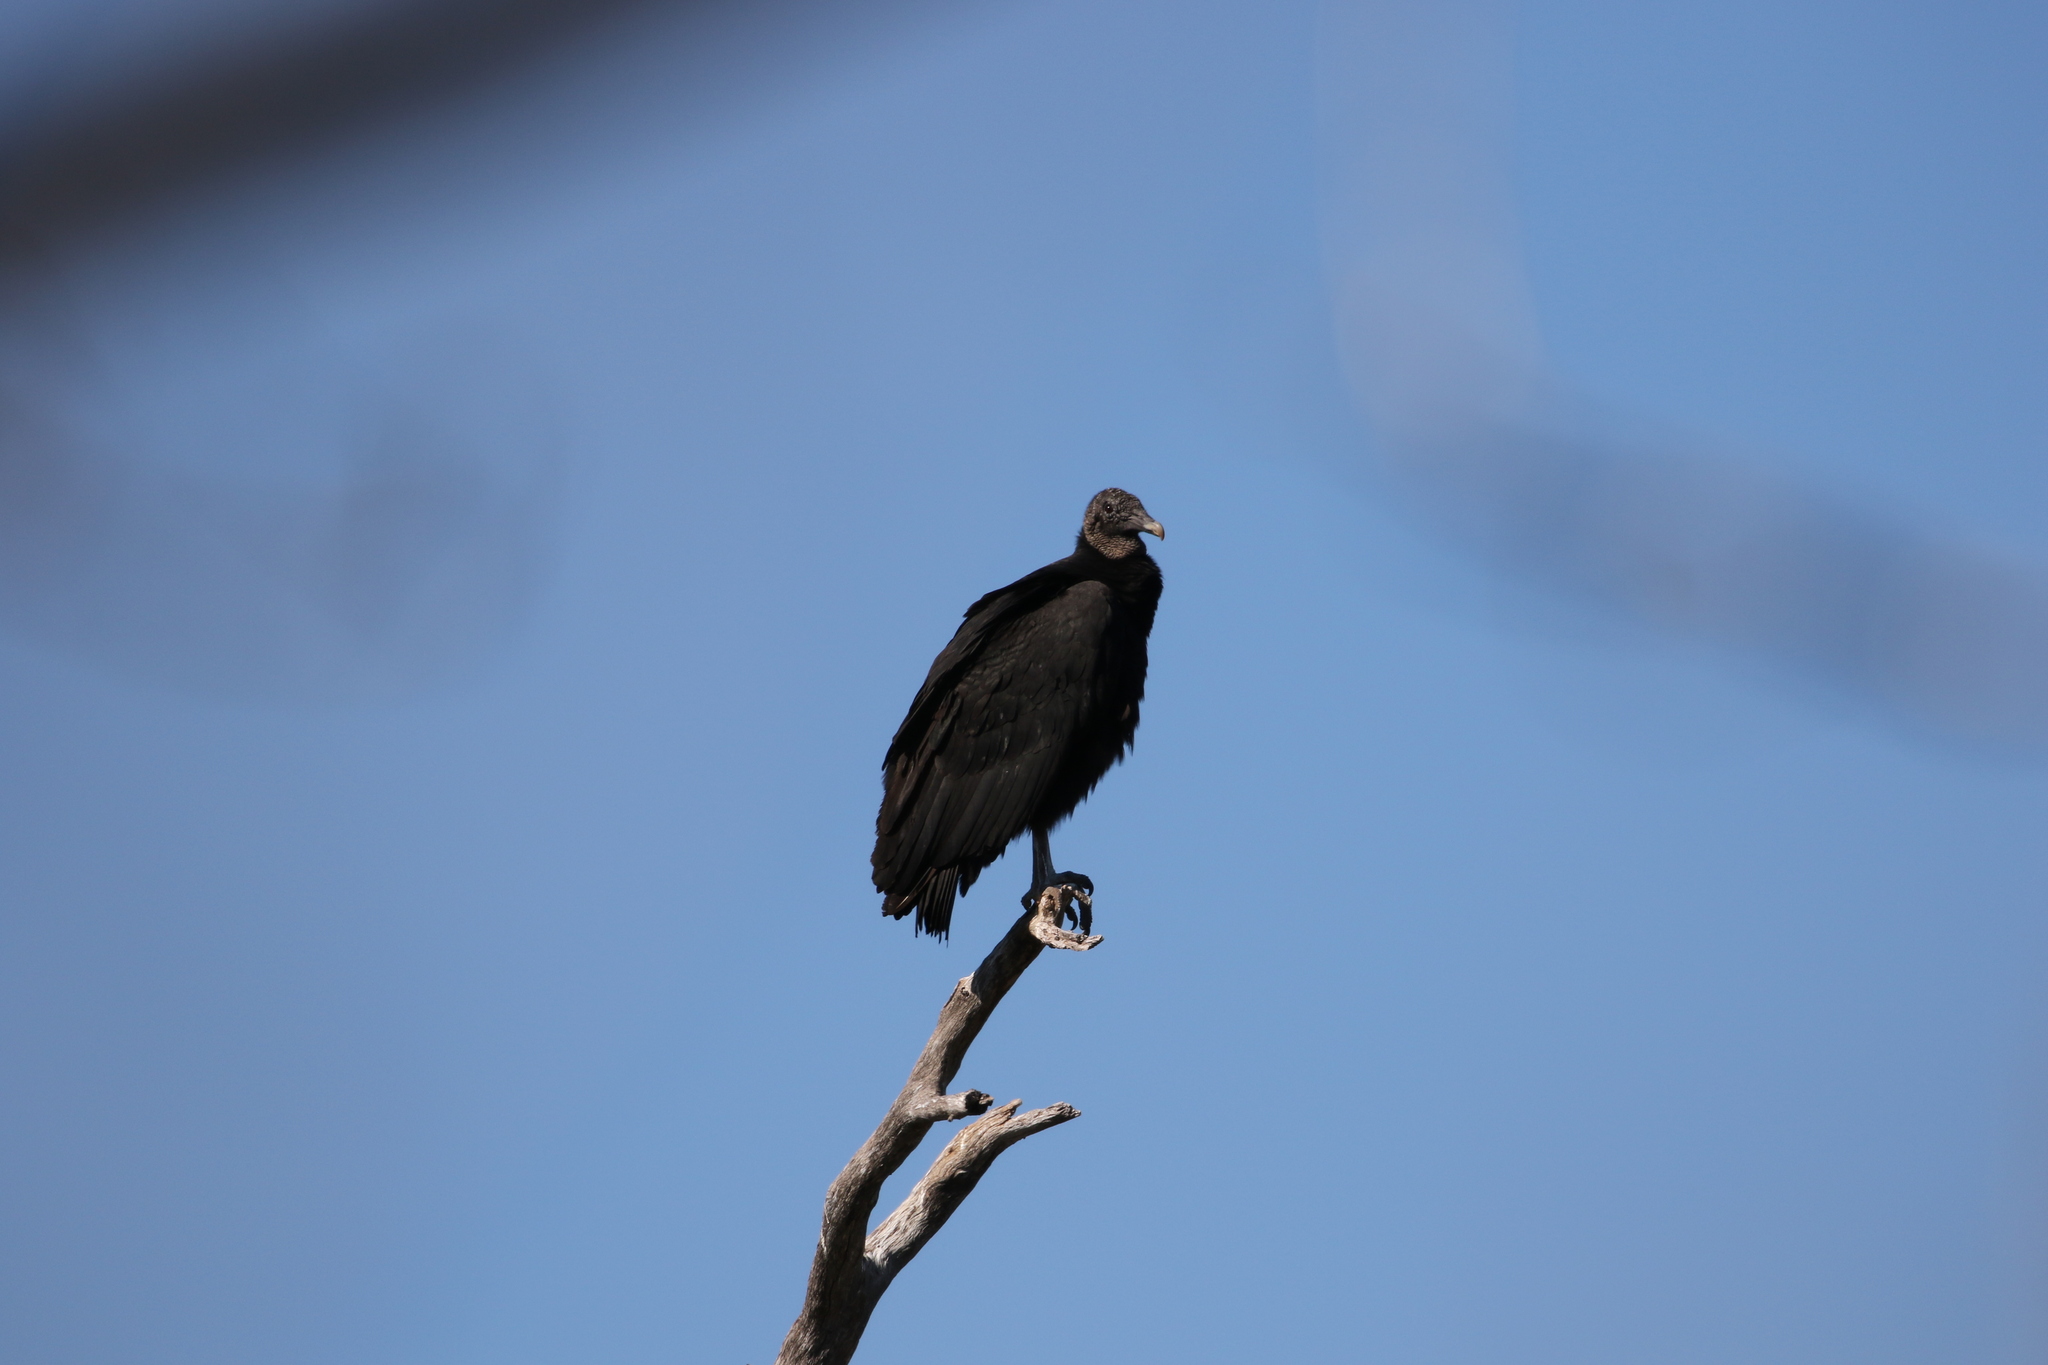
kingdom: Animalia
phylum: Chordata
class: Aves
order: Accipitriformes
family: Cathartidae
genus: Coragyps
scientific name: Coragyps atratus
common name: Black vulture
